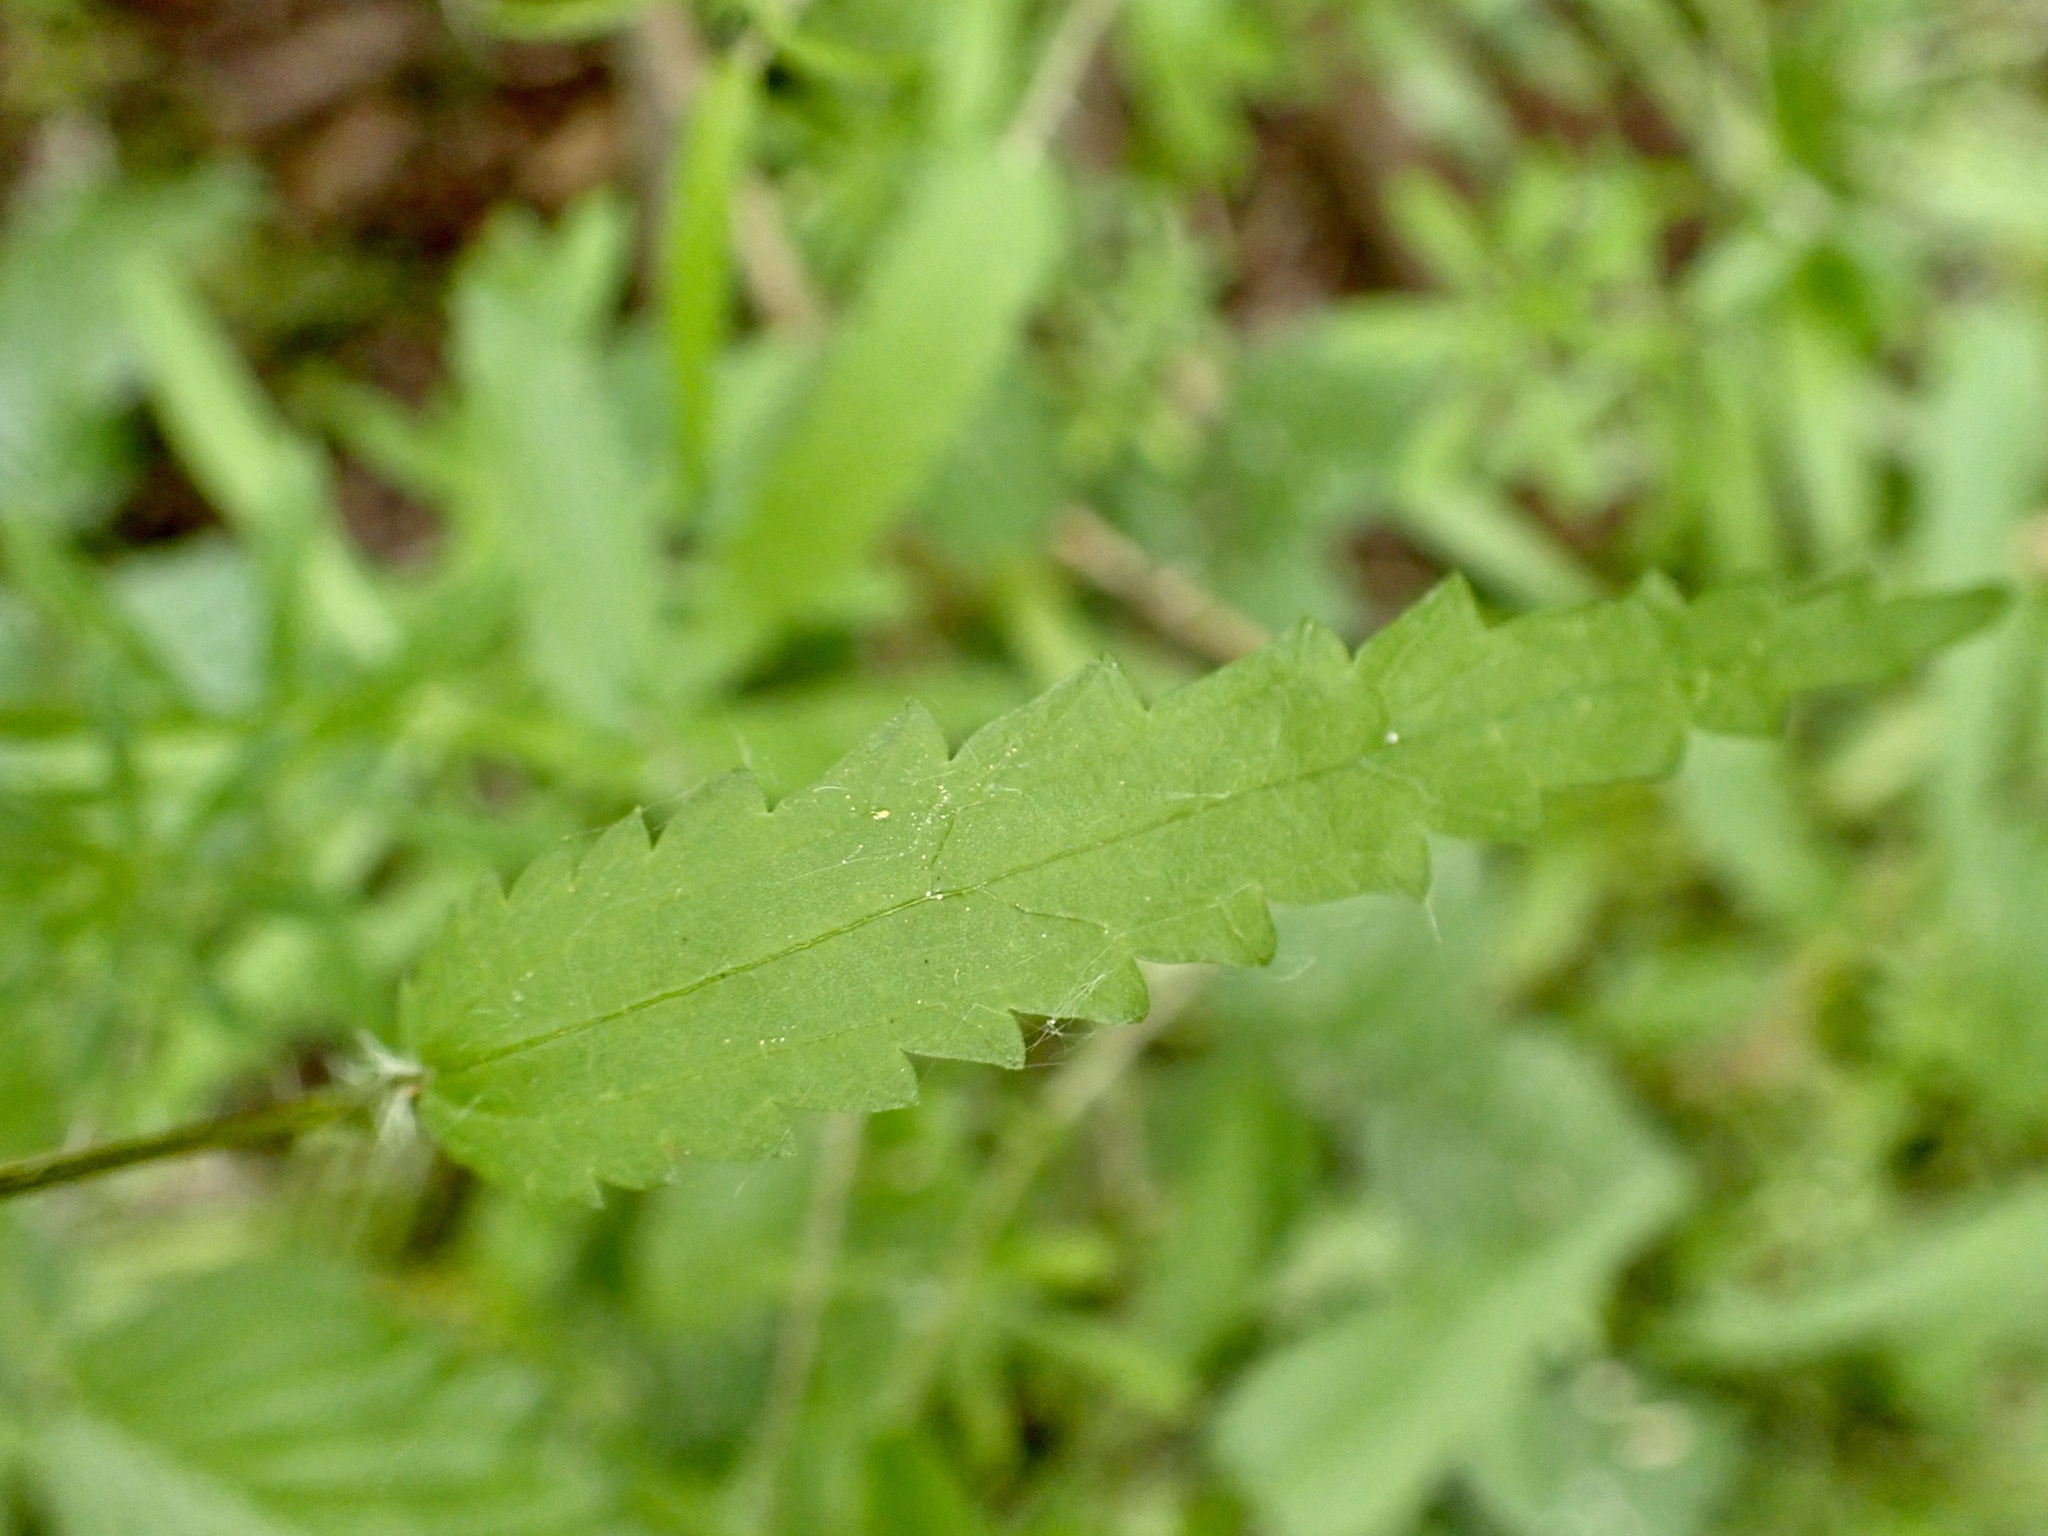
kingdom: Plantae
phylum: Tracheophyta
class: Magnoliopsida
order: Rosales
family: Urticaceae
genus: Urtica
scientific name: Urtica perconfusa
